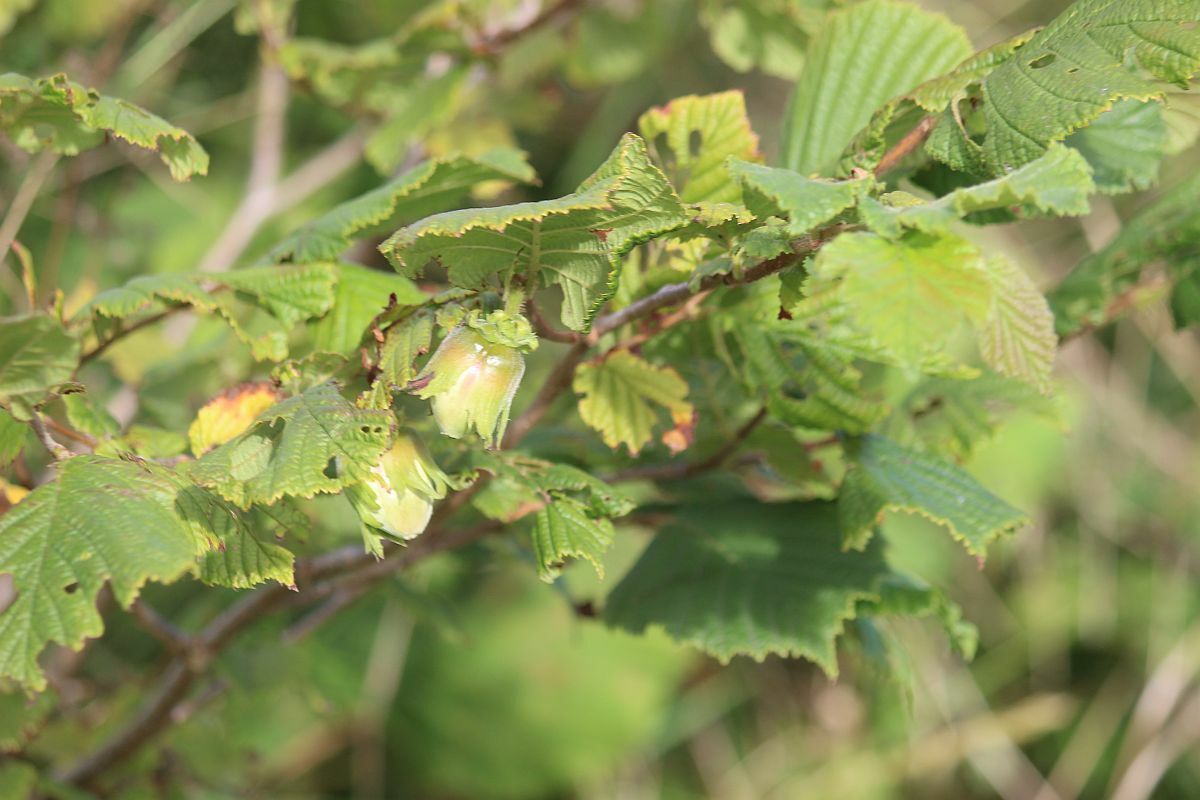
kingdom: Plantae
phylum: Tracheophyta
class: Magnoliopsida
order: Fagales
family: Betulaceae
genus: Corylus
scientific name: Corylus avellana
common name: European hazel
